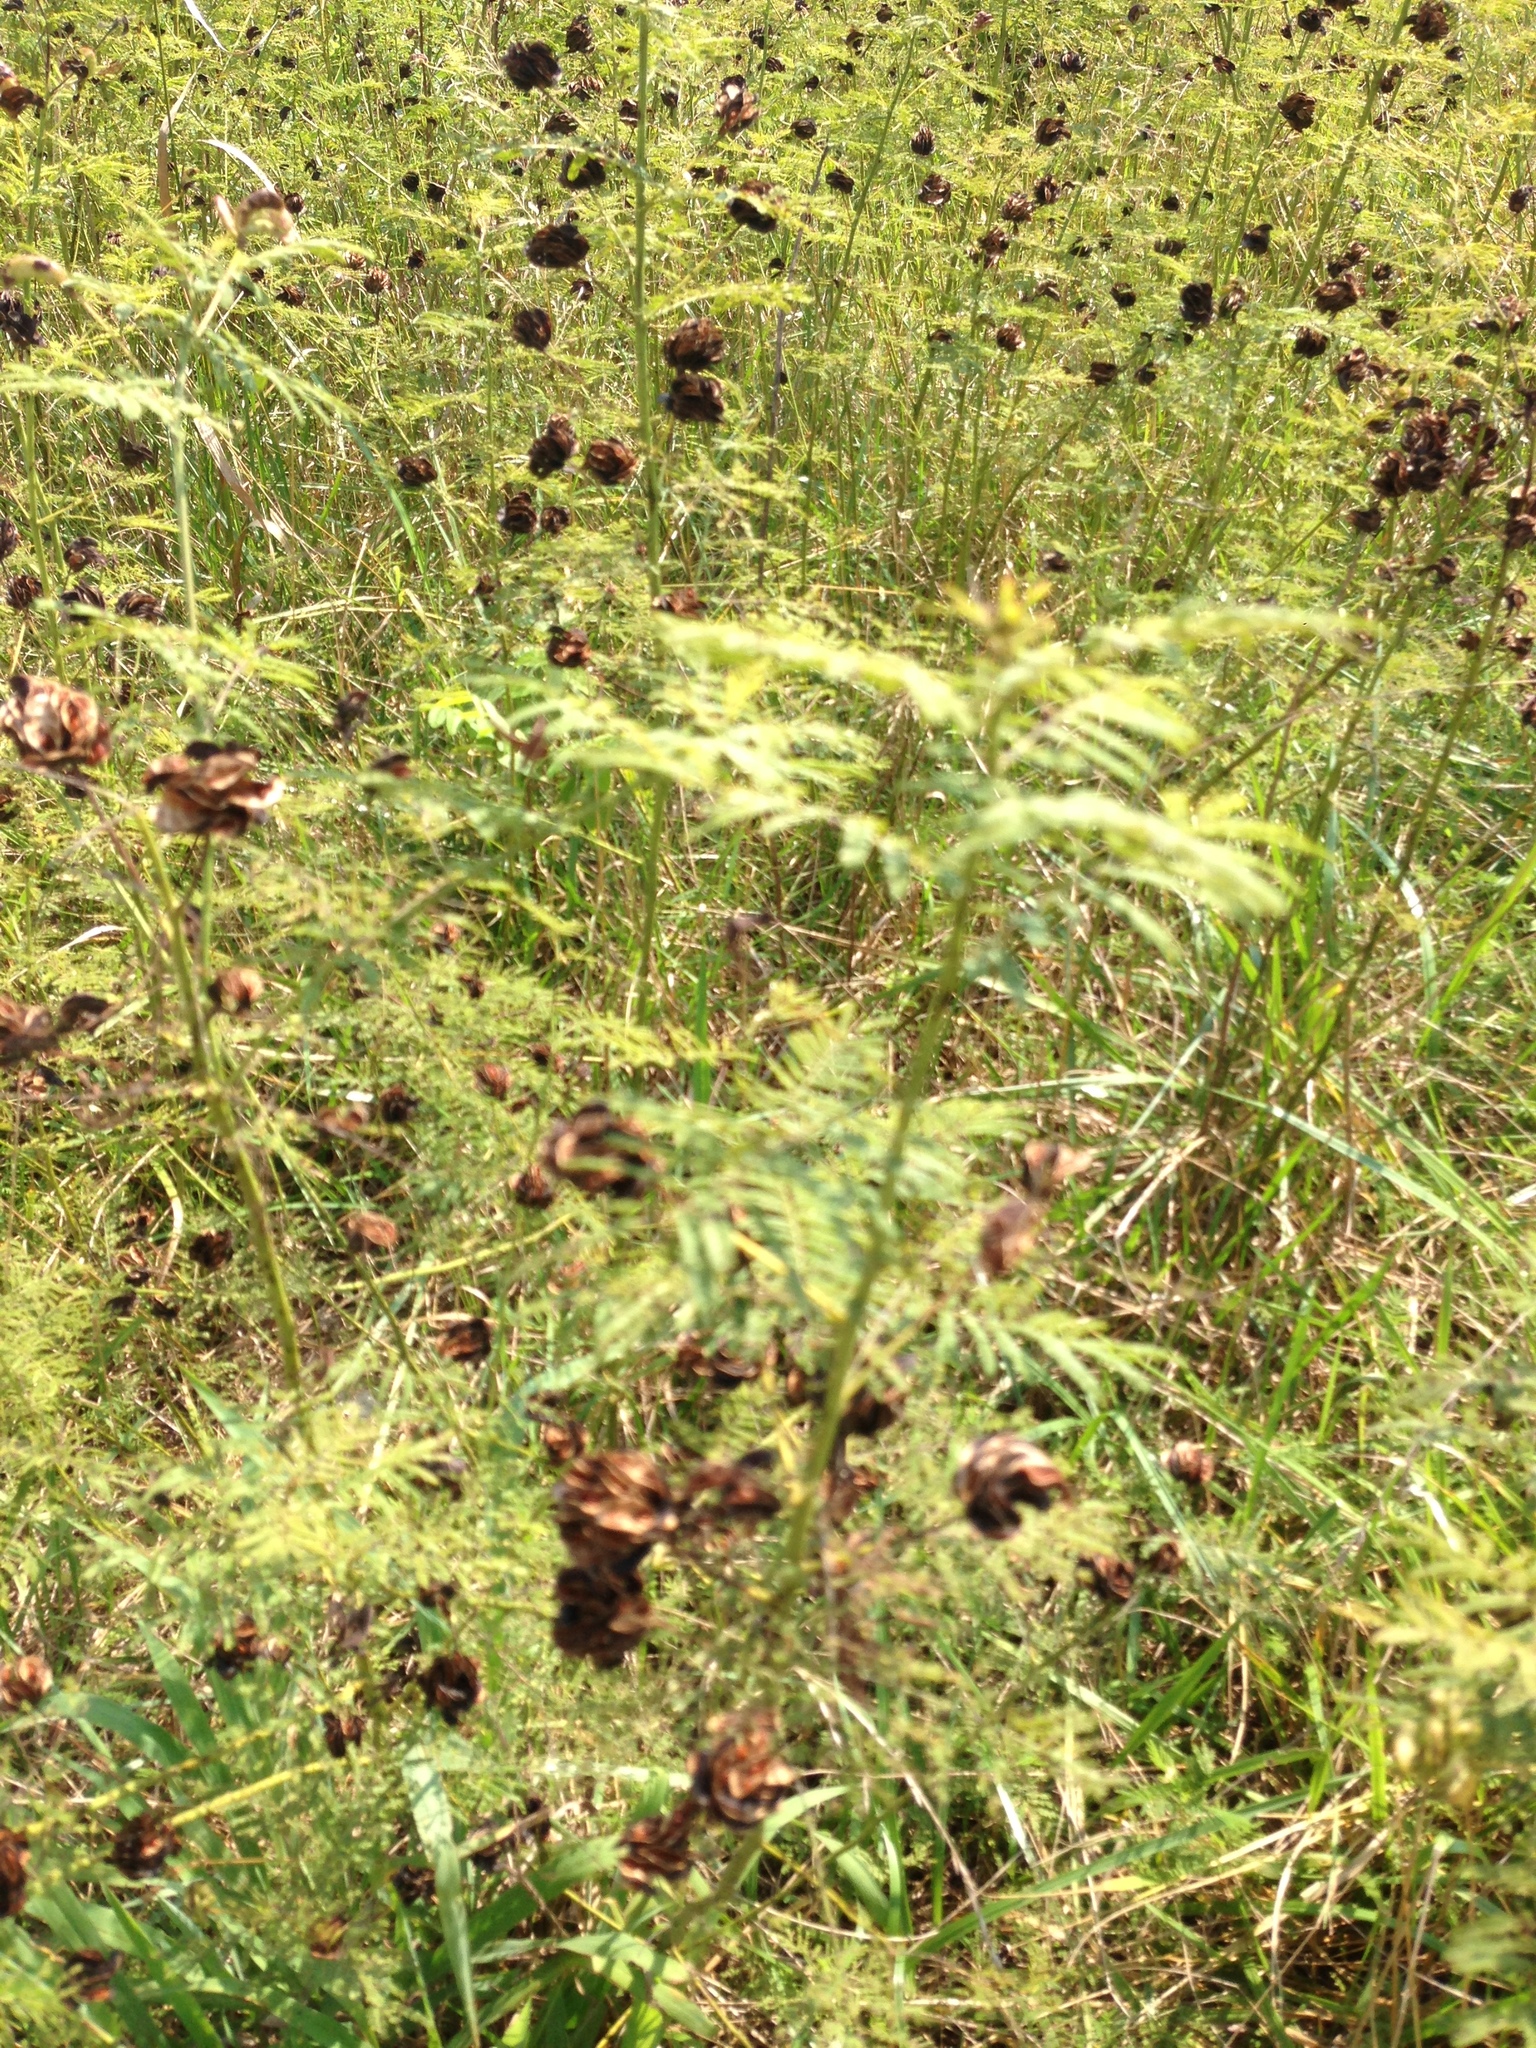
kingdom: Plantae
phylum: Tracheophyta
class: Magnoliopsida
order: Fabales
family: Fabaceae
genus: Desmanthus
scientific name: Desmanthus illinoensis
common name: Illinois bundle-flower
